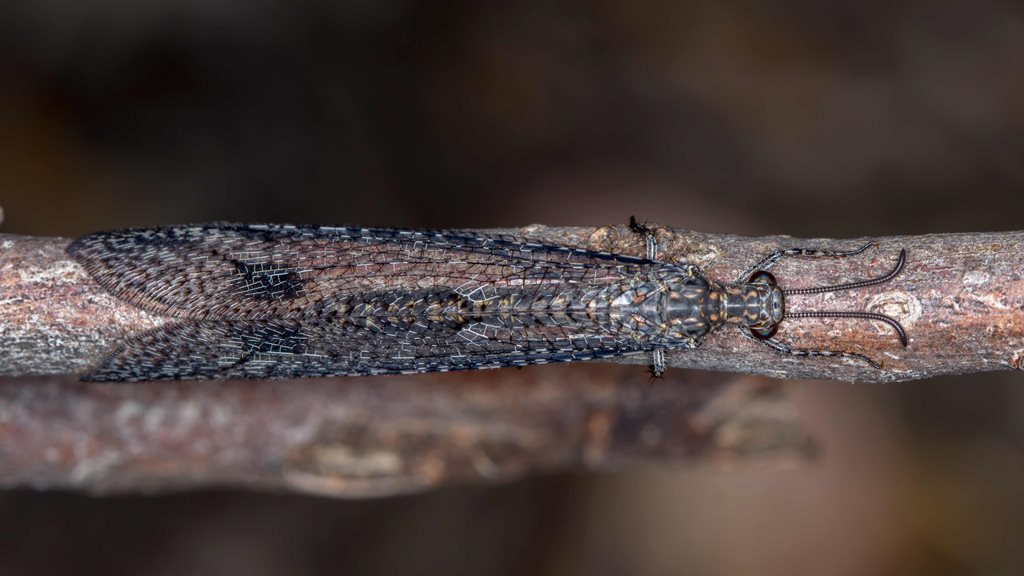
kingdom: Animalia
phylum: Arthropoda
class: Insecta
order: Neuroptera
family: Myrmeleontidae
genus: Austrogymnocnemia
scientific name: Austrogymnocnemia
